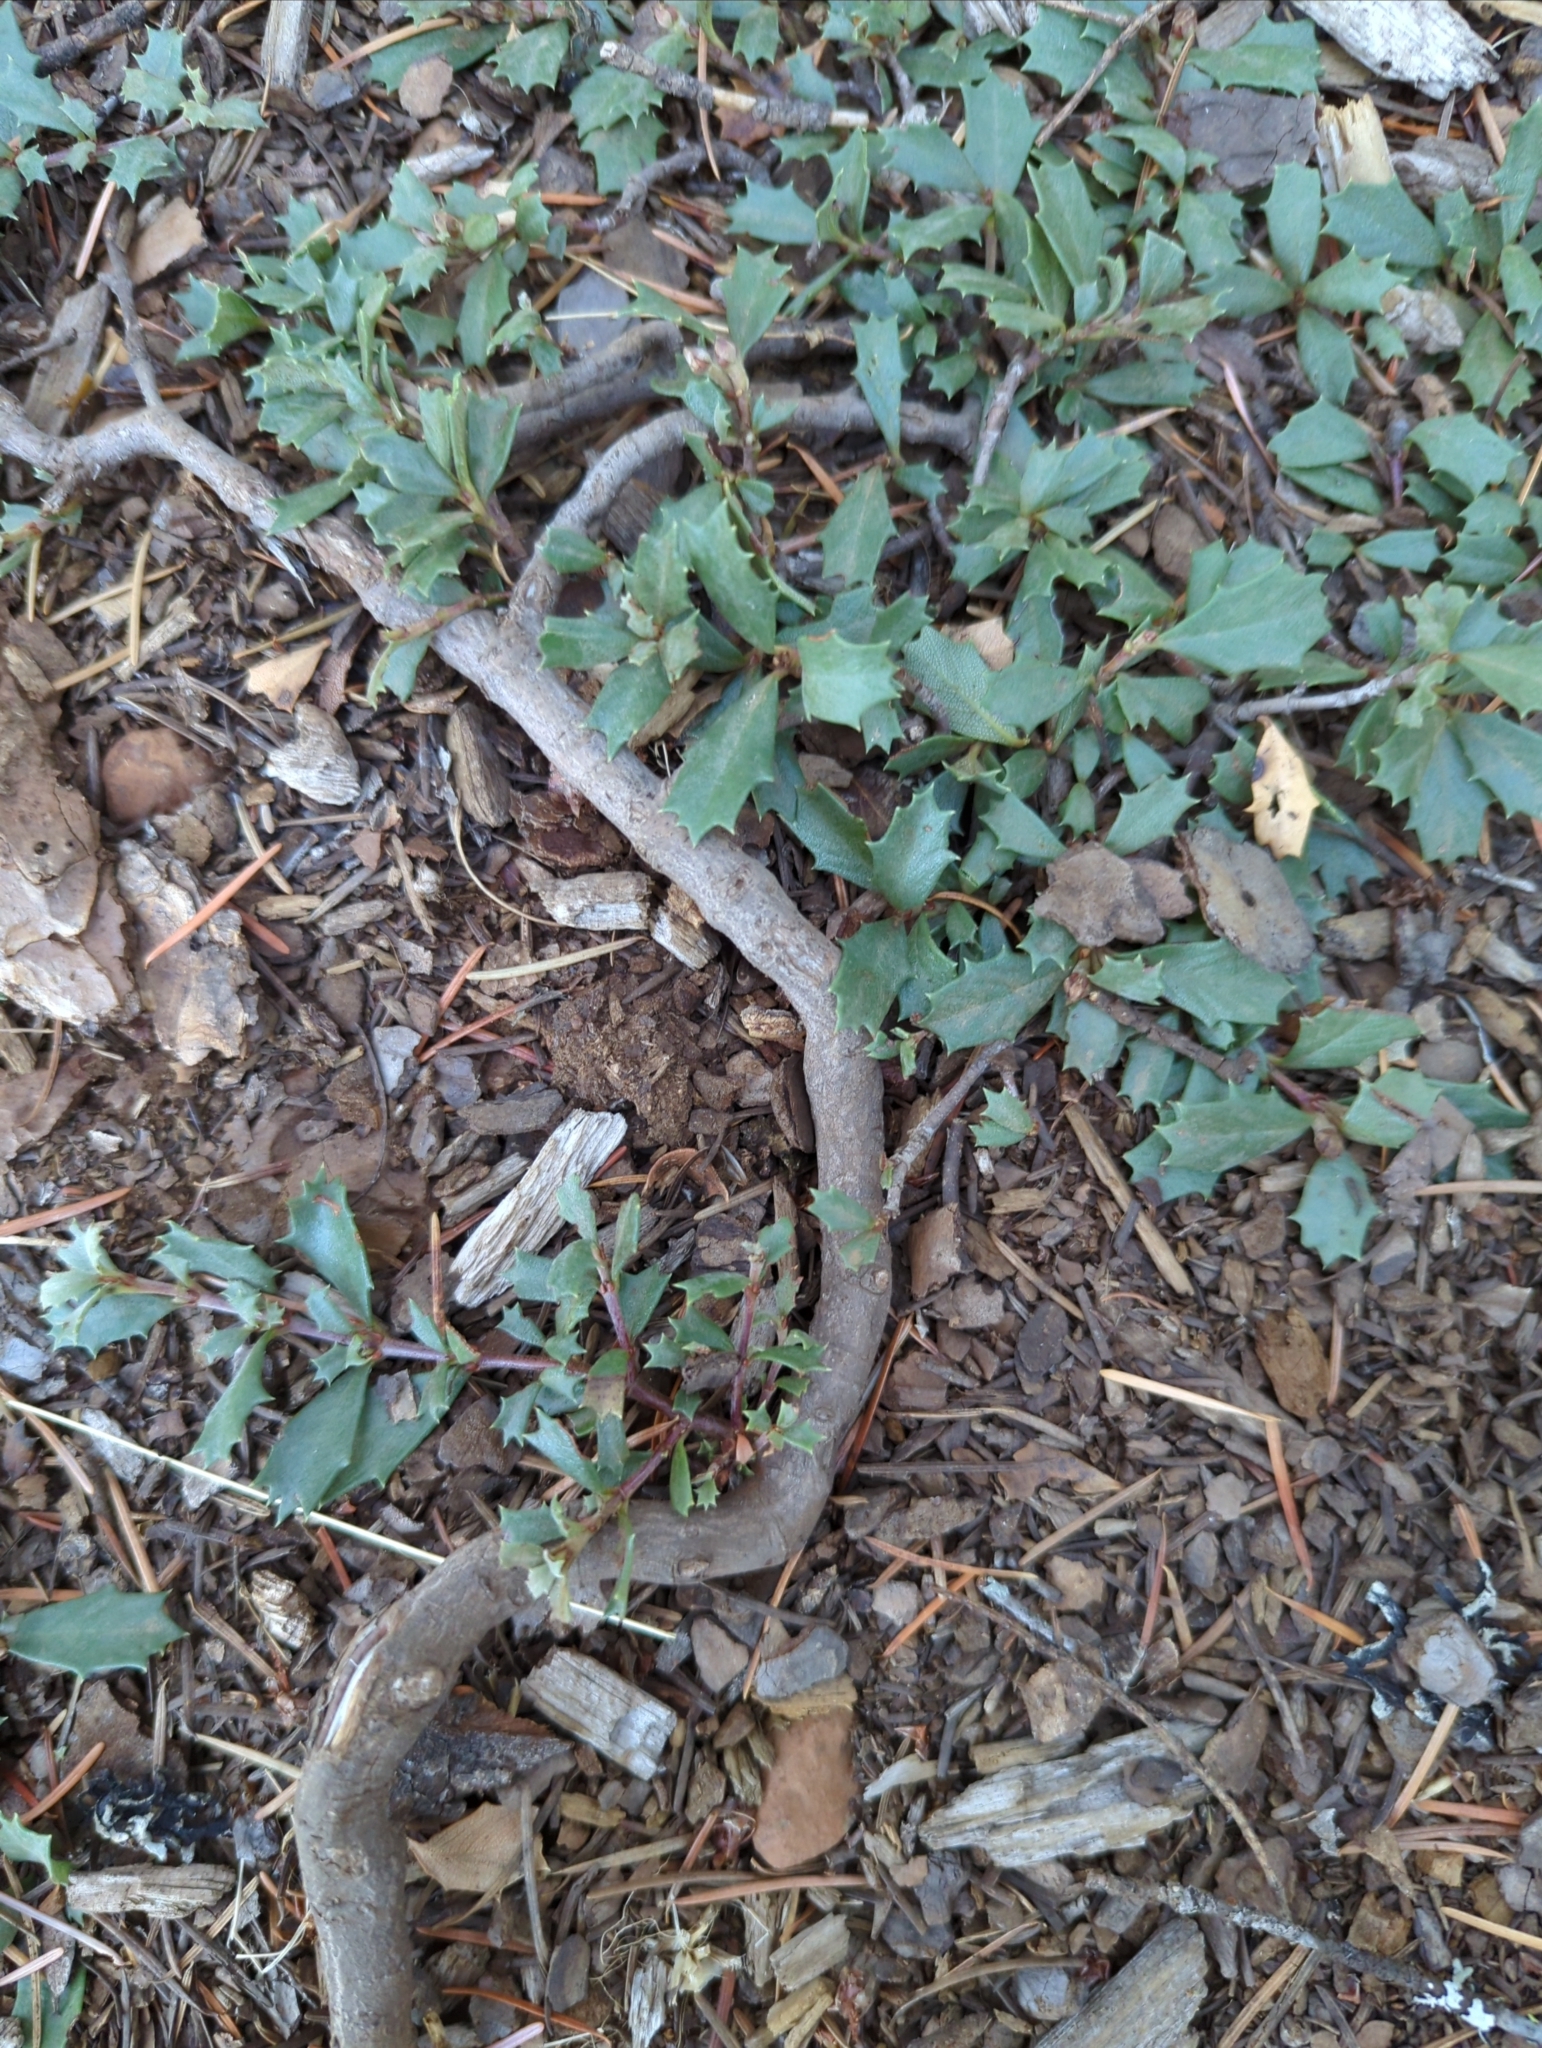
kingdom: Plantae
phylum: Tracheophyta
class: Magnoliopsida
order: Rosales
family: Rhamnaceae
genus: Ceanothus
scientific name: Ceanothus prostratus
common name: Mahala-mat
